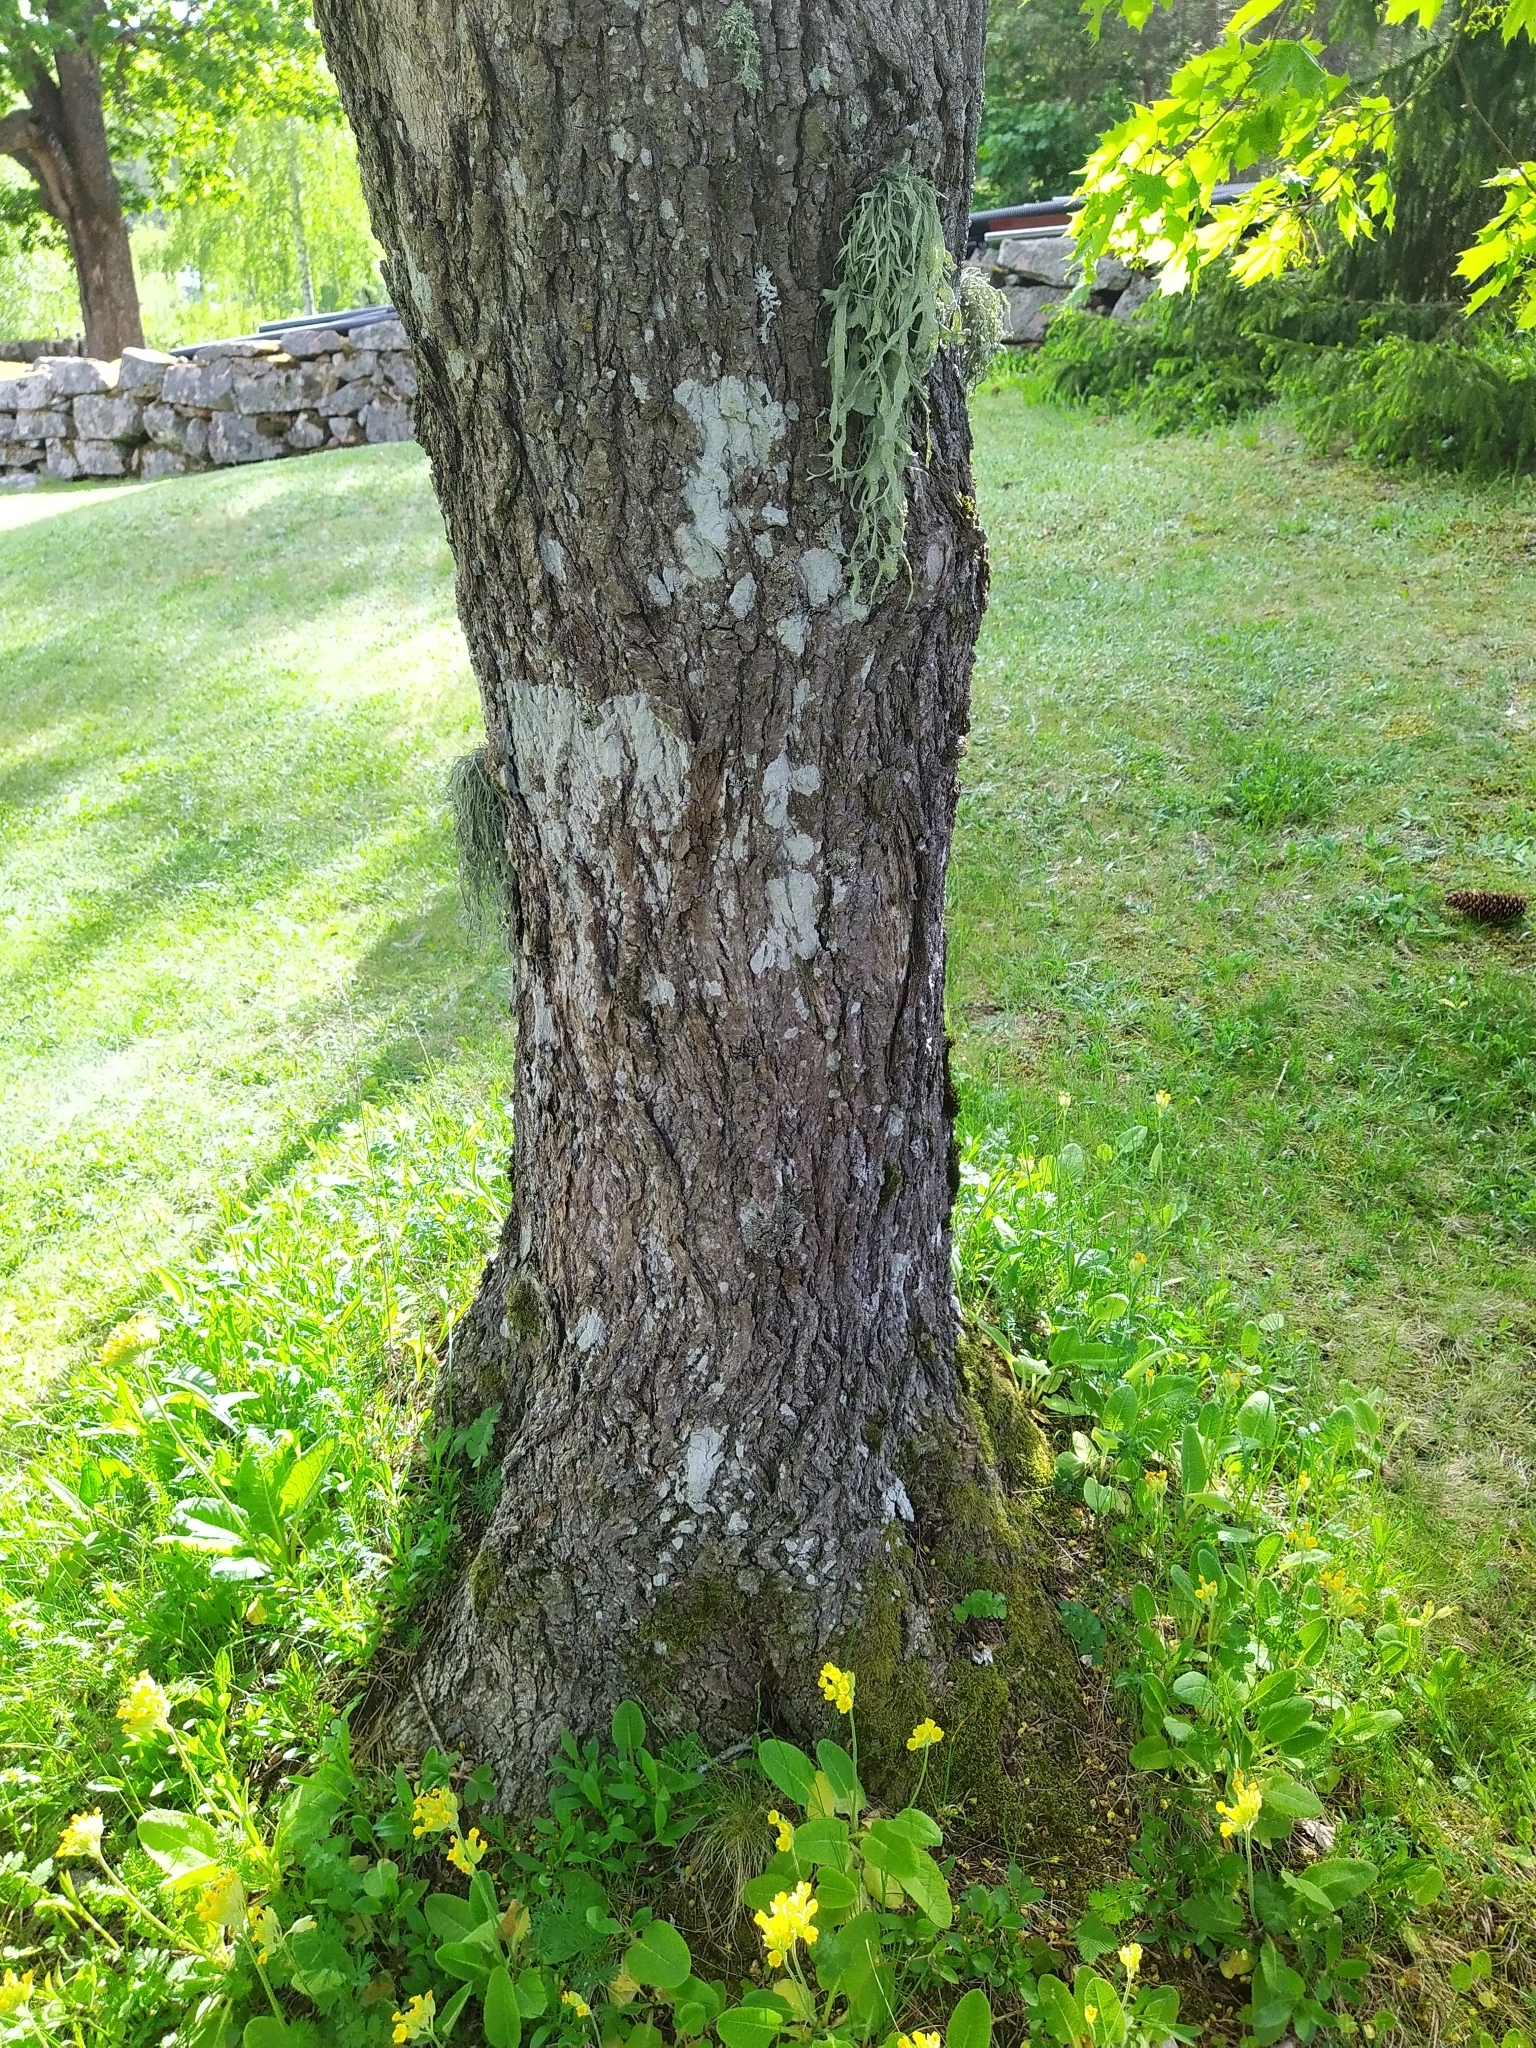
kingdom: Fungi
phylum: Ascomycota
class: Lecanoromycetes
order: Lecanorales
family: Ramalinaceae
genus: Ramalina
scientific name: Ramalina fraxinea
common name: Cartilage lichen
